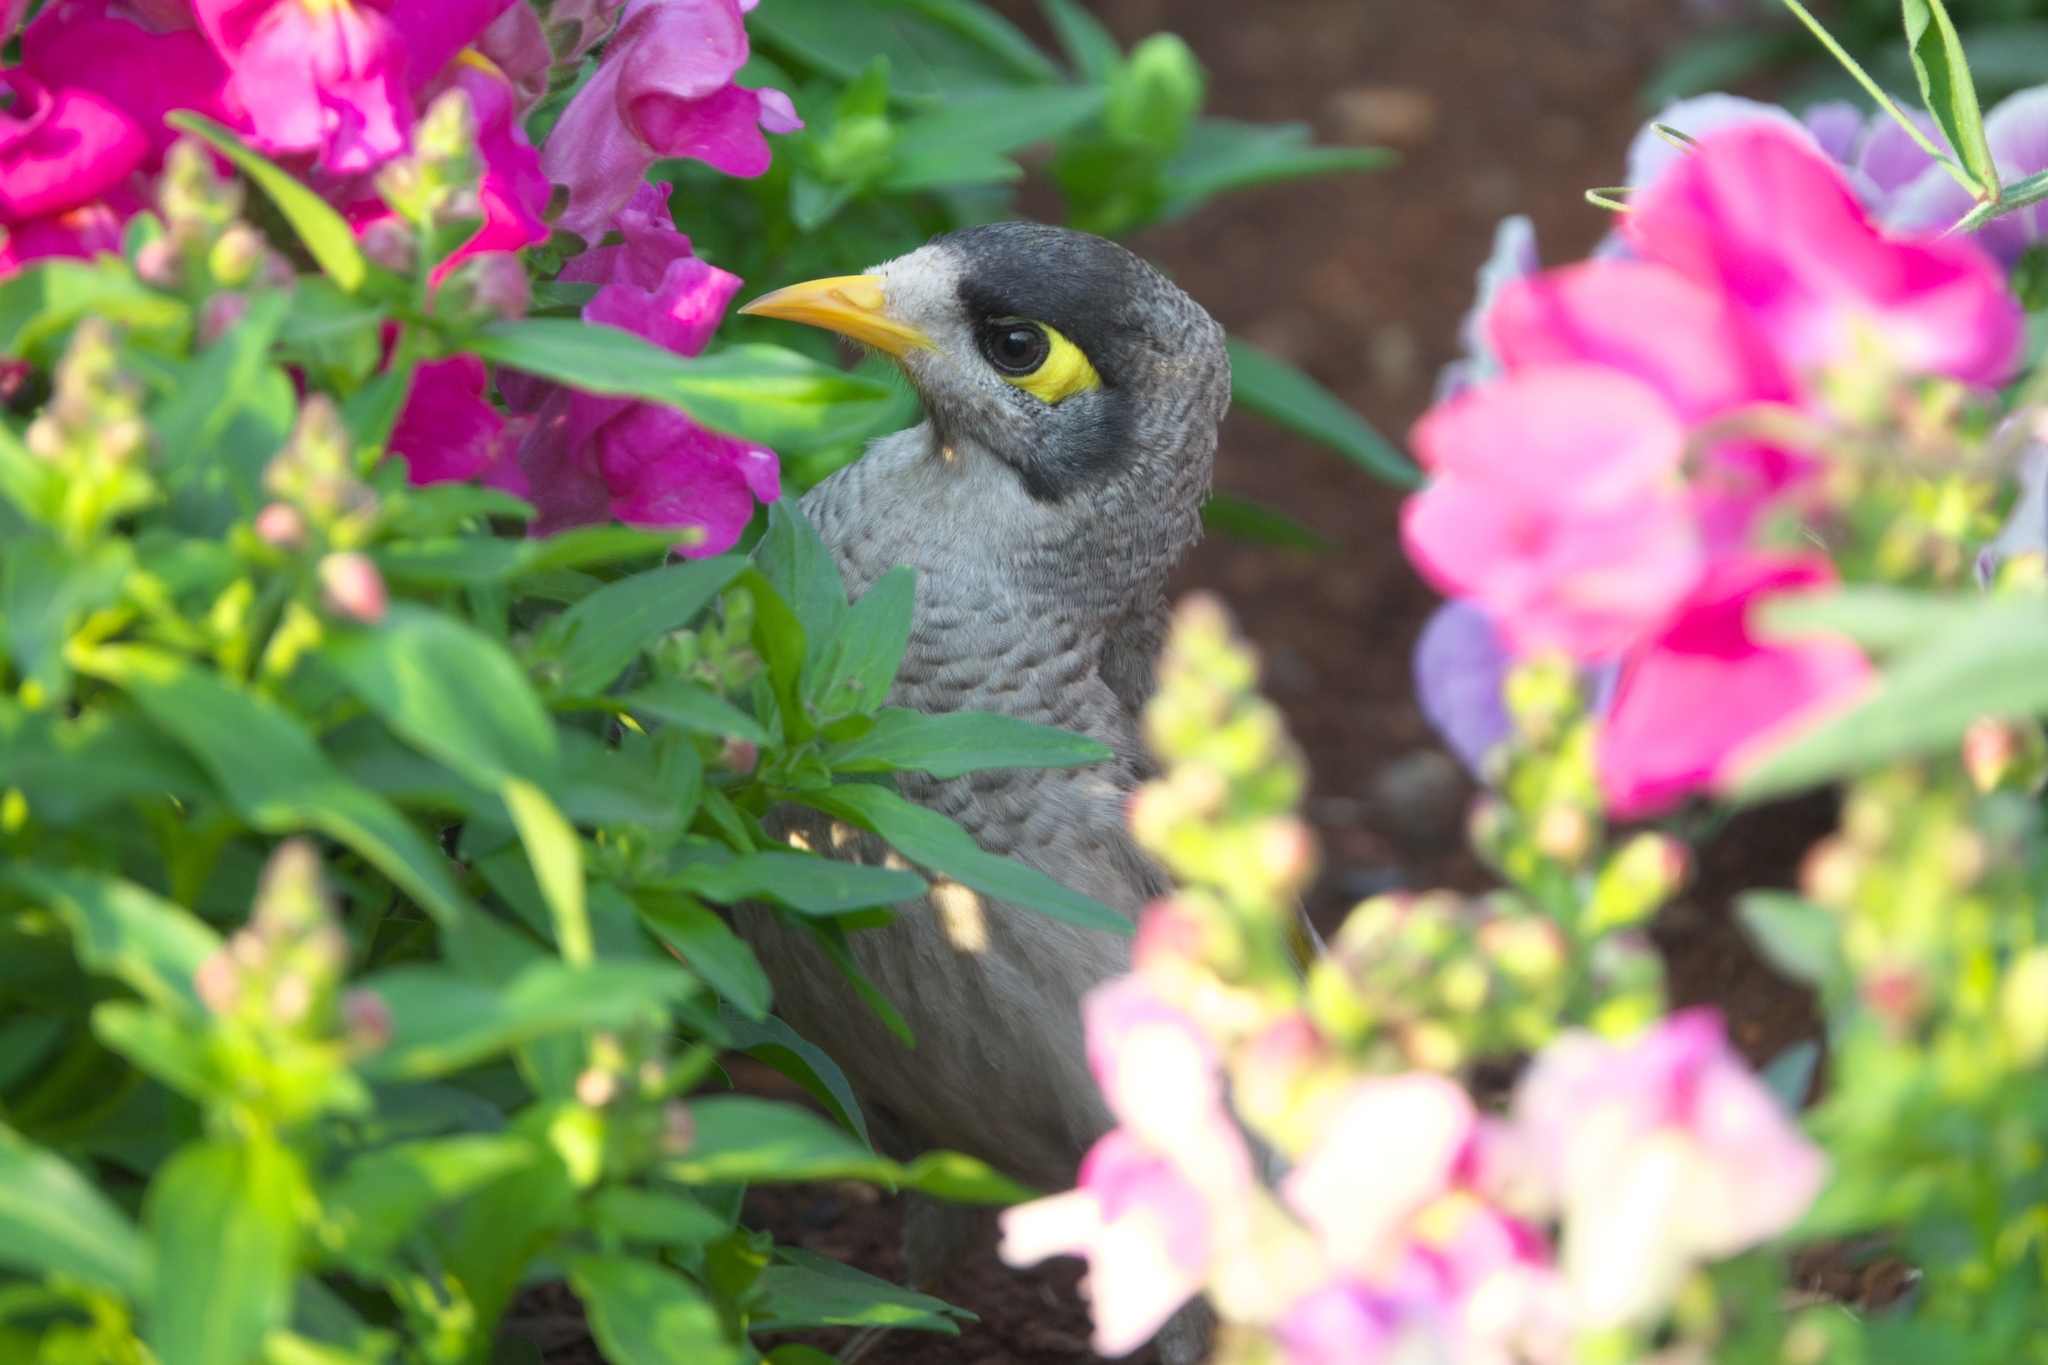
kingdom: Animalia
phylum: Chordata
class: Aves
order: Passeriformes
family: Meliphagidae
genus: Manorina
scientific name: Manorina melanocephala
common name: Noisy miner
